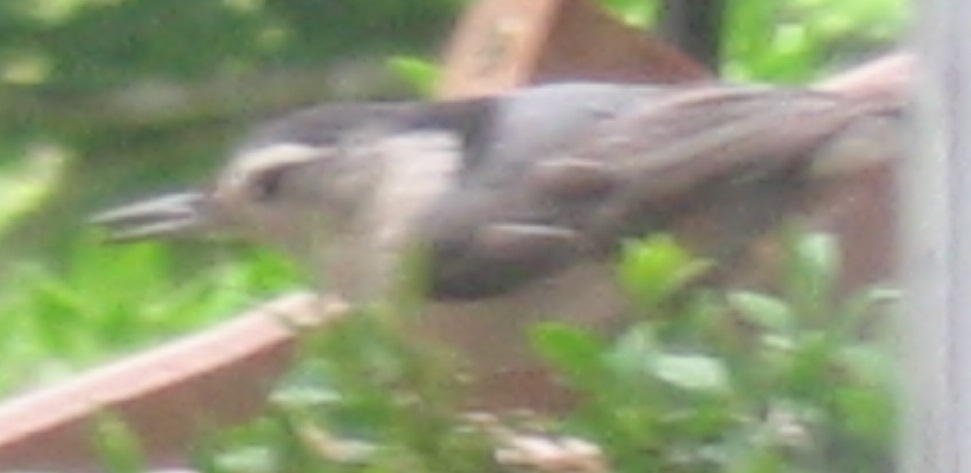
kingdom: Animalia
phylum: Chordata
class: Aves
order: Passeriformes
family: Sittidae
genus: Sitta
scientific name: Sitta carolinensis
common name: White-breasted nuthatch
